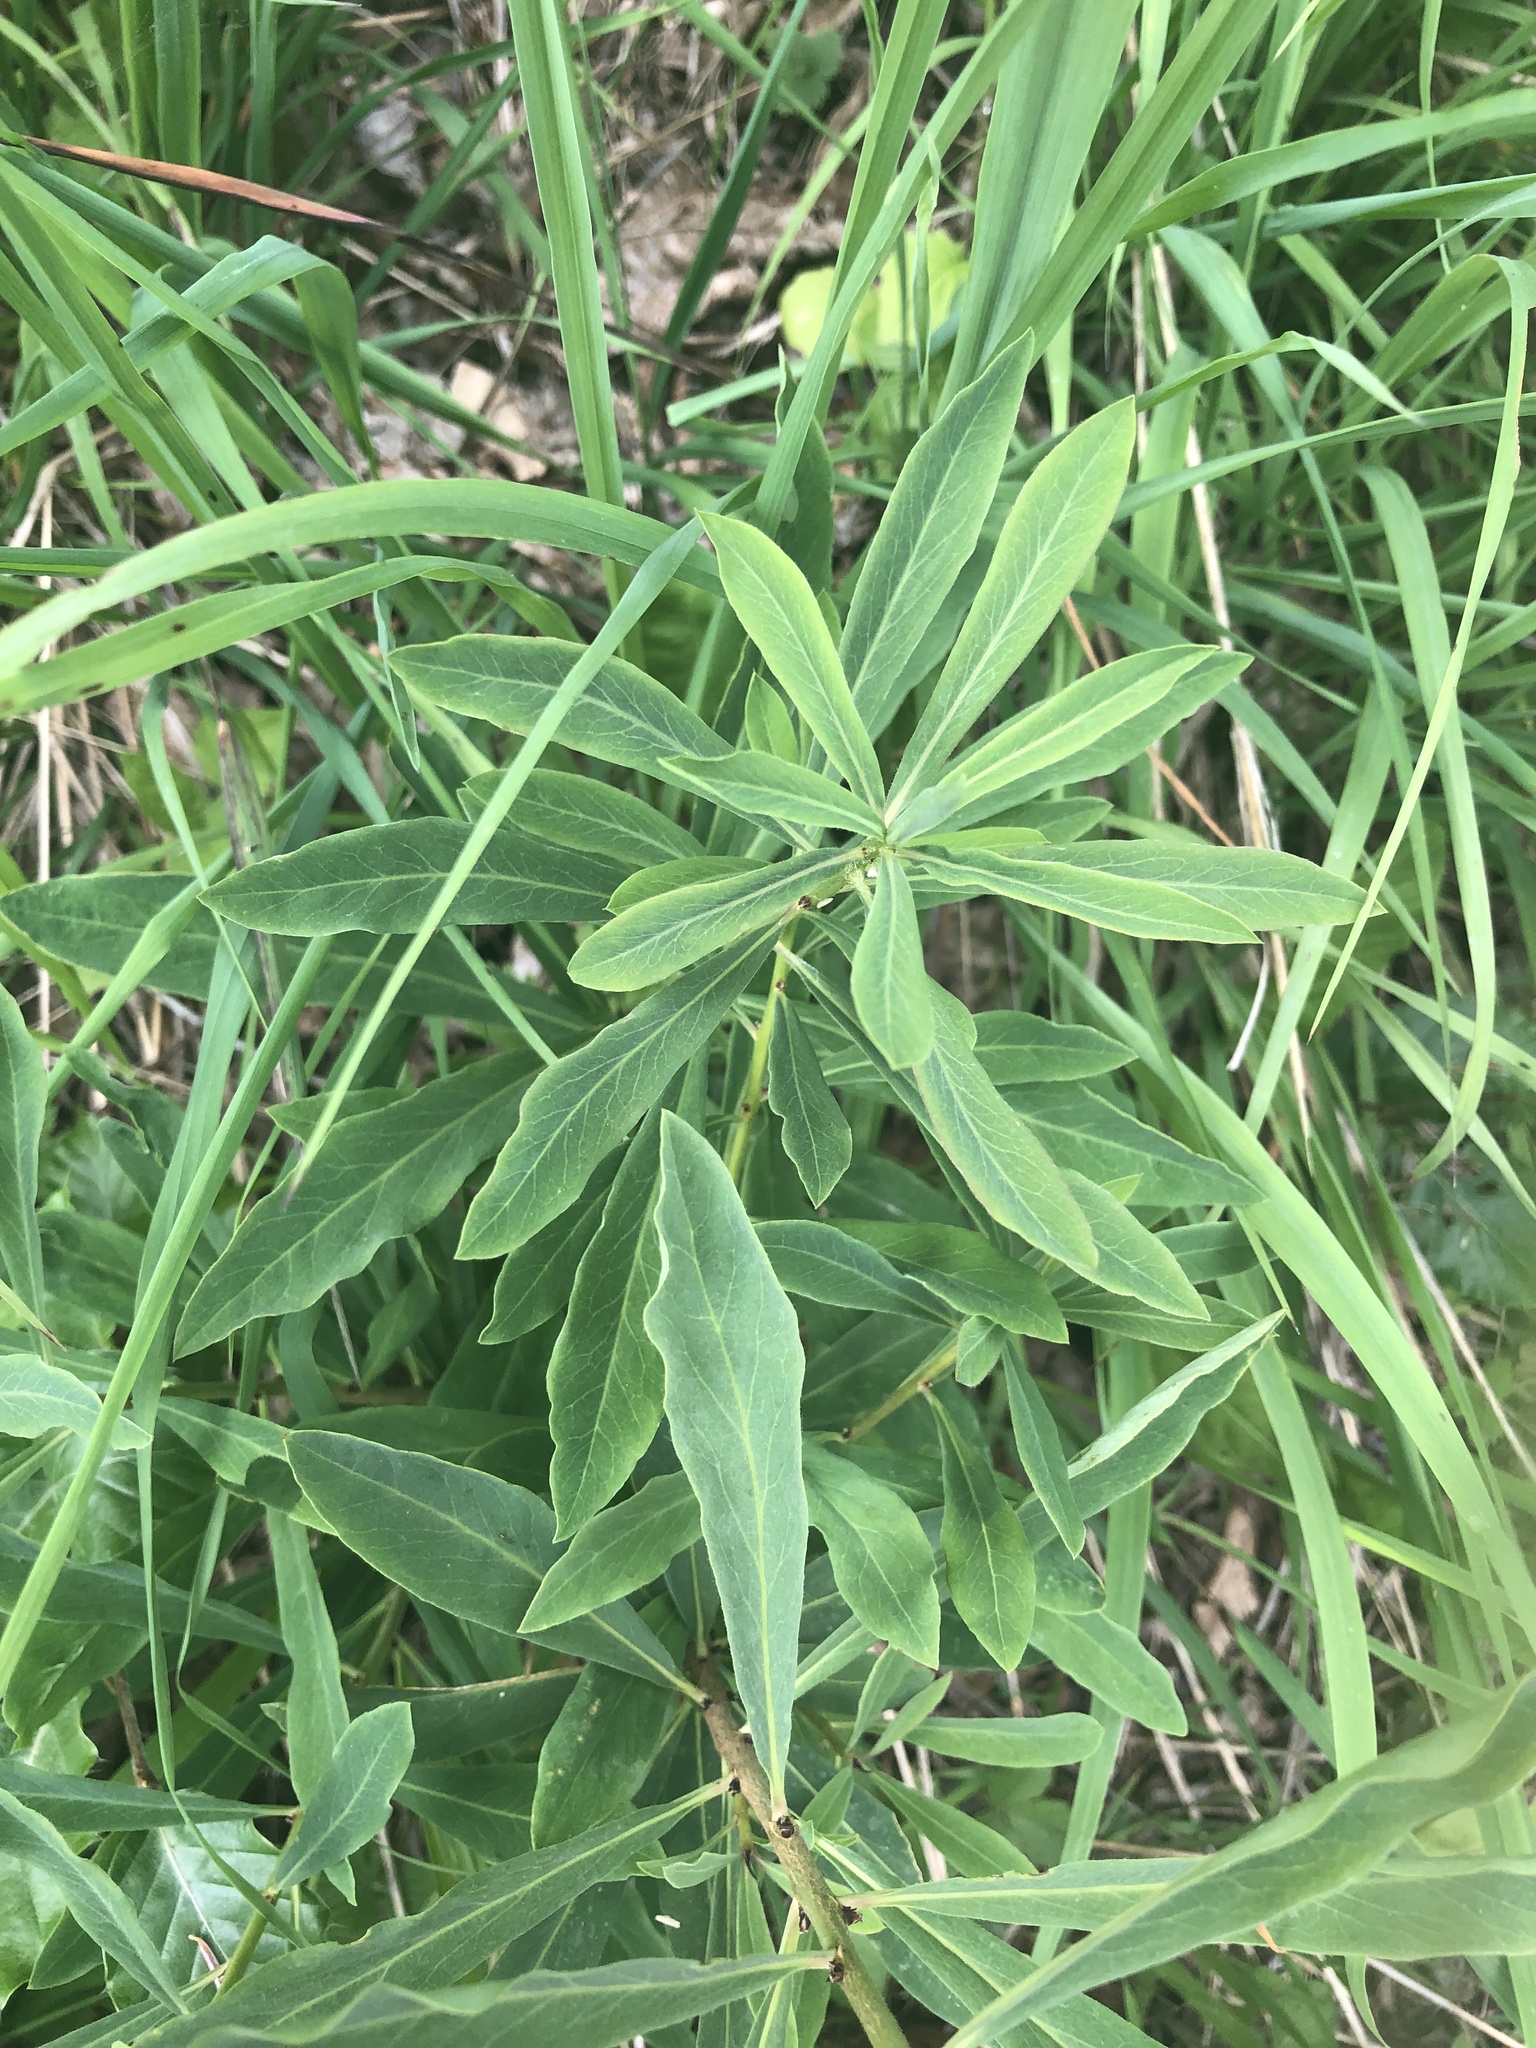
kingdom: Plantae
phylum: Tracheophyta
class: Magnoliopsida
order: Malvales
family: Thymelaeaceae
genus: Daphne
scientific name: Daphne mezereum
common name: Mezereon
